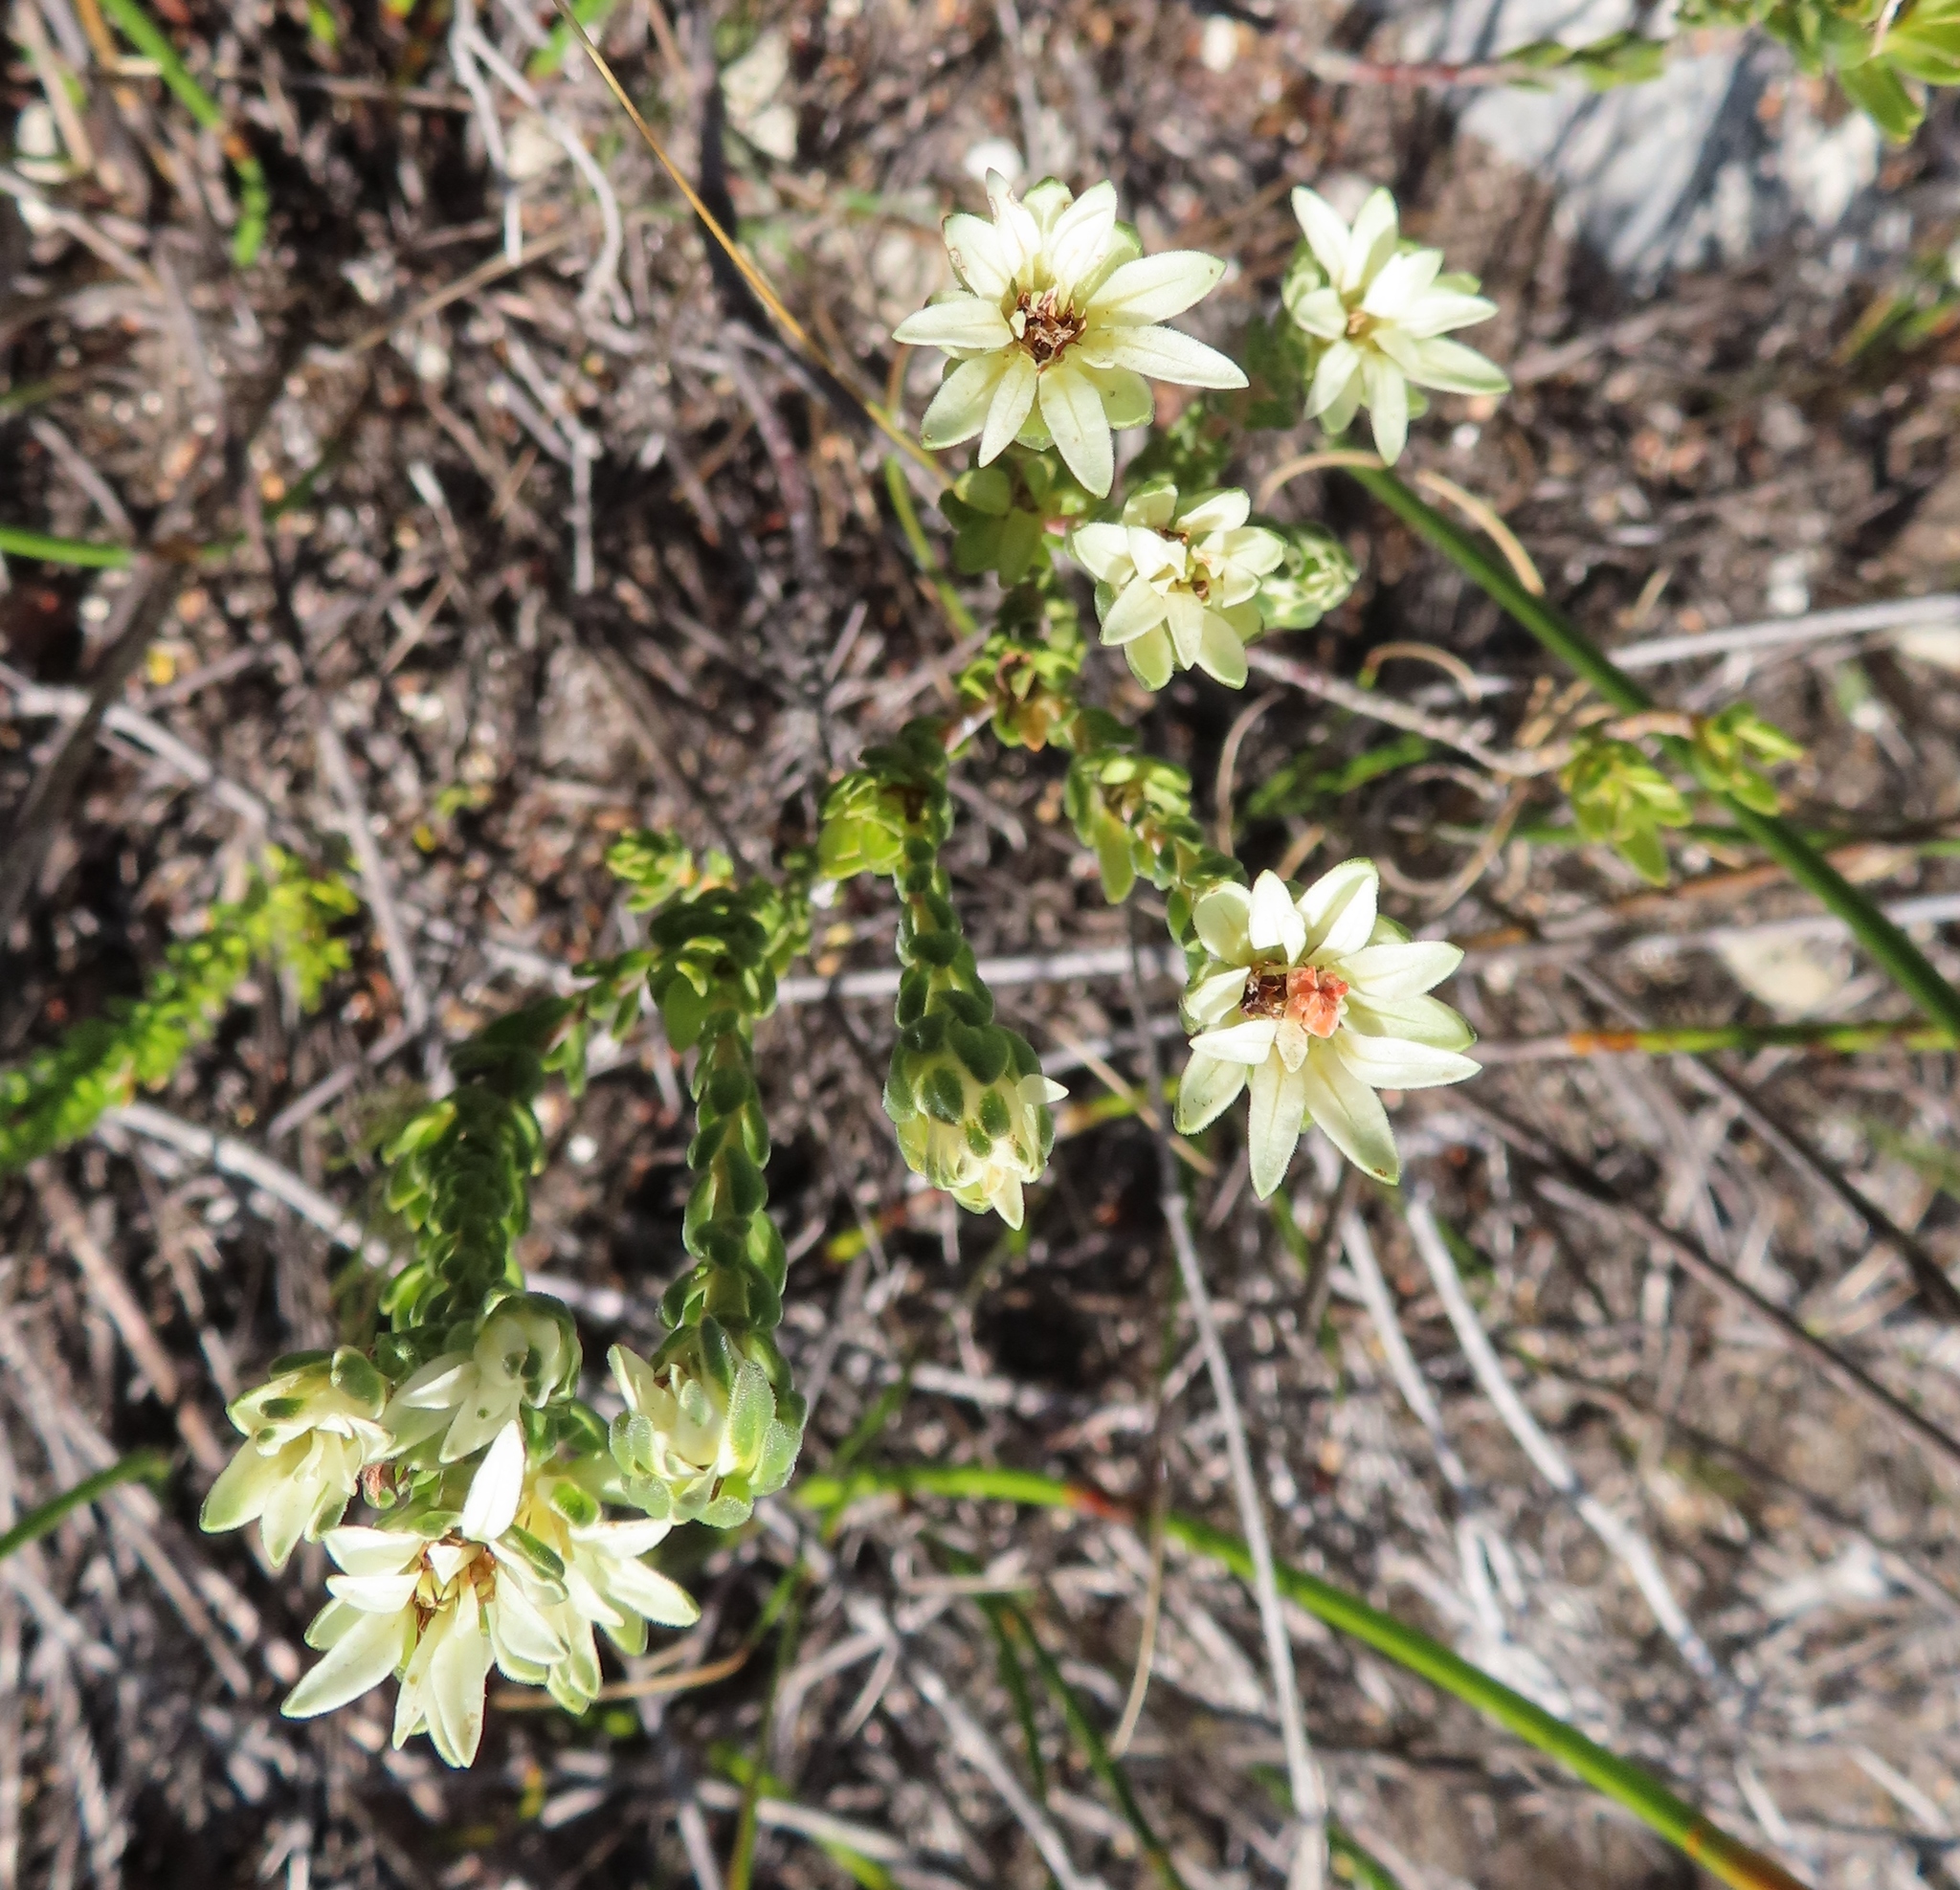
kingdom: Plantae
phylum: Tracheophyta
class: Magnoliopsida
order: Sapindales
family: Rutaceae
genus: Euchaetis
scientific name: Euchaetis longibracteata
